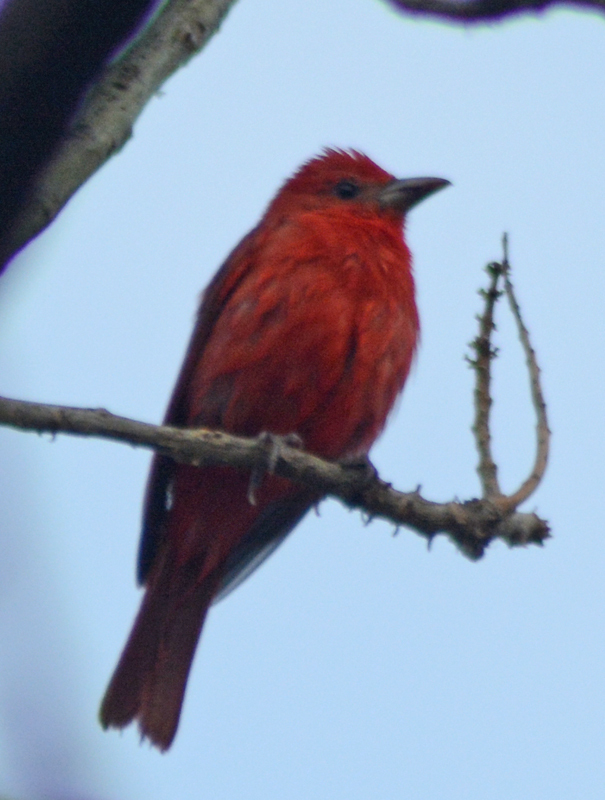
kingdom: Animalia
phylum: Chordata
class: Aves
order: Passeriformes
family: Cardinalidae
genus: Piranga
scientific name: Piranga rubra
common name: Summer tanager
